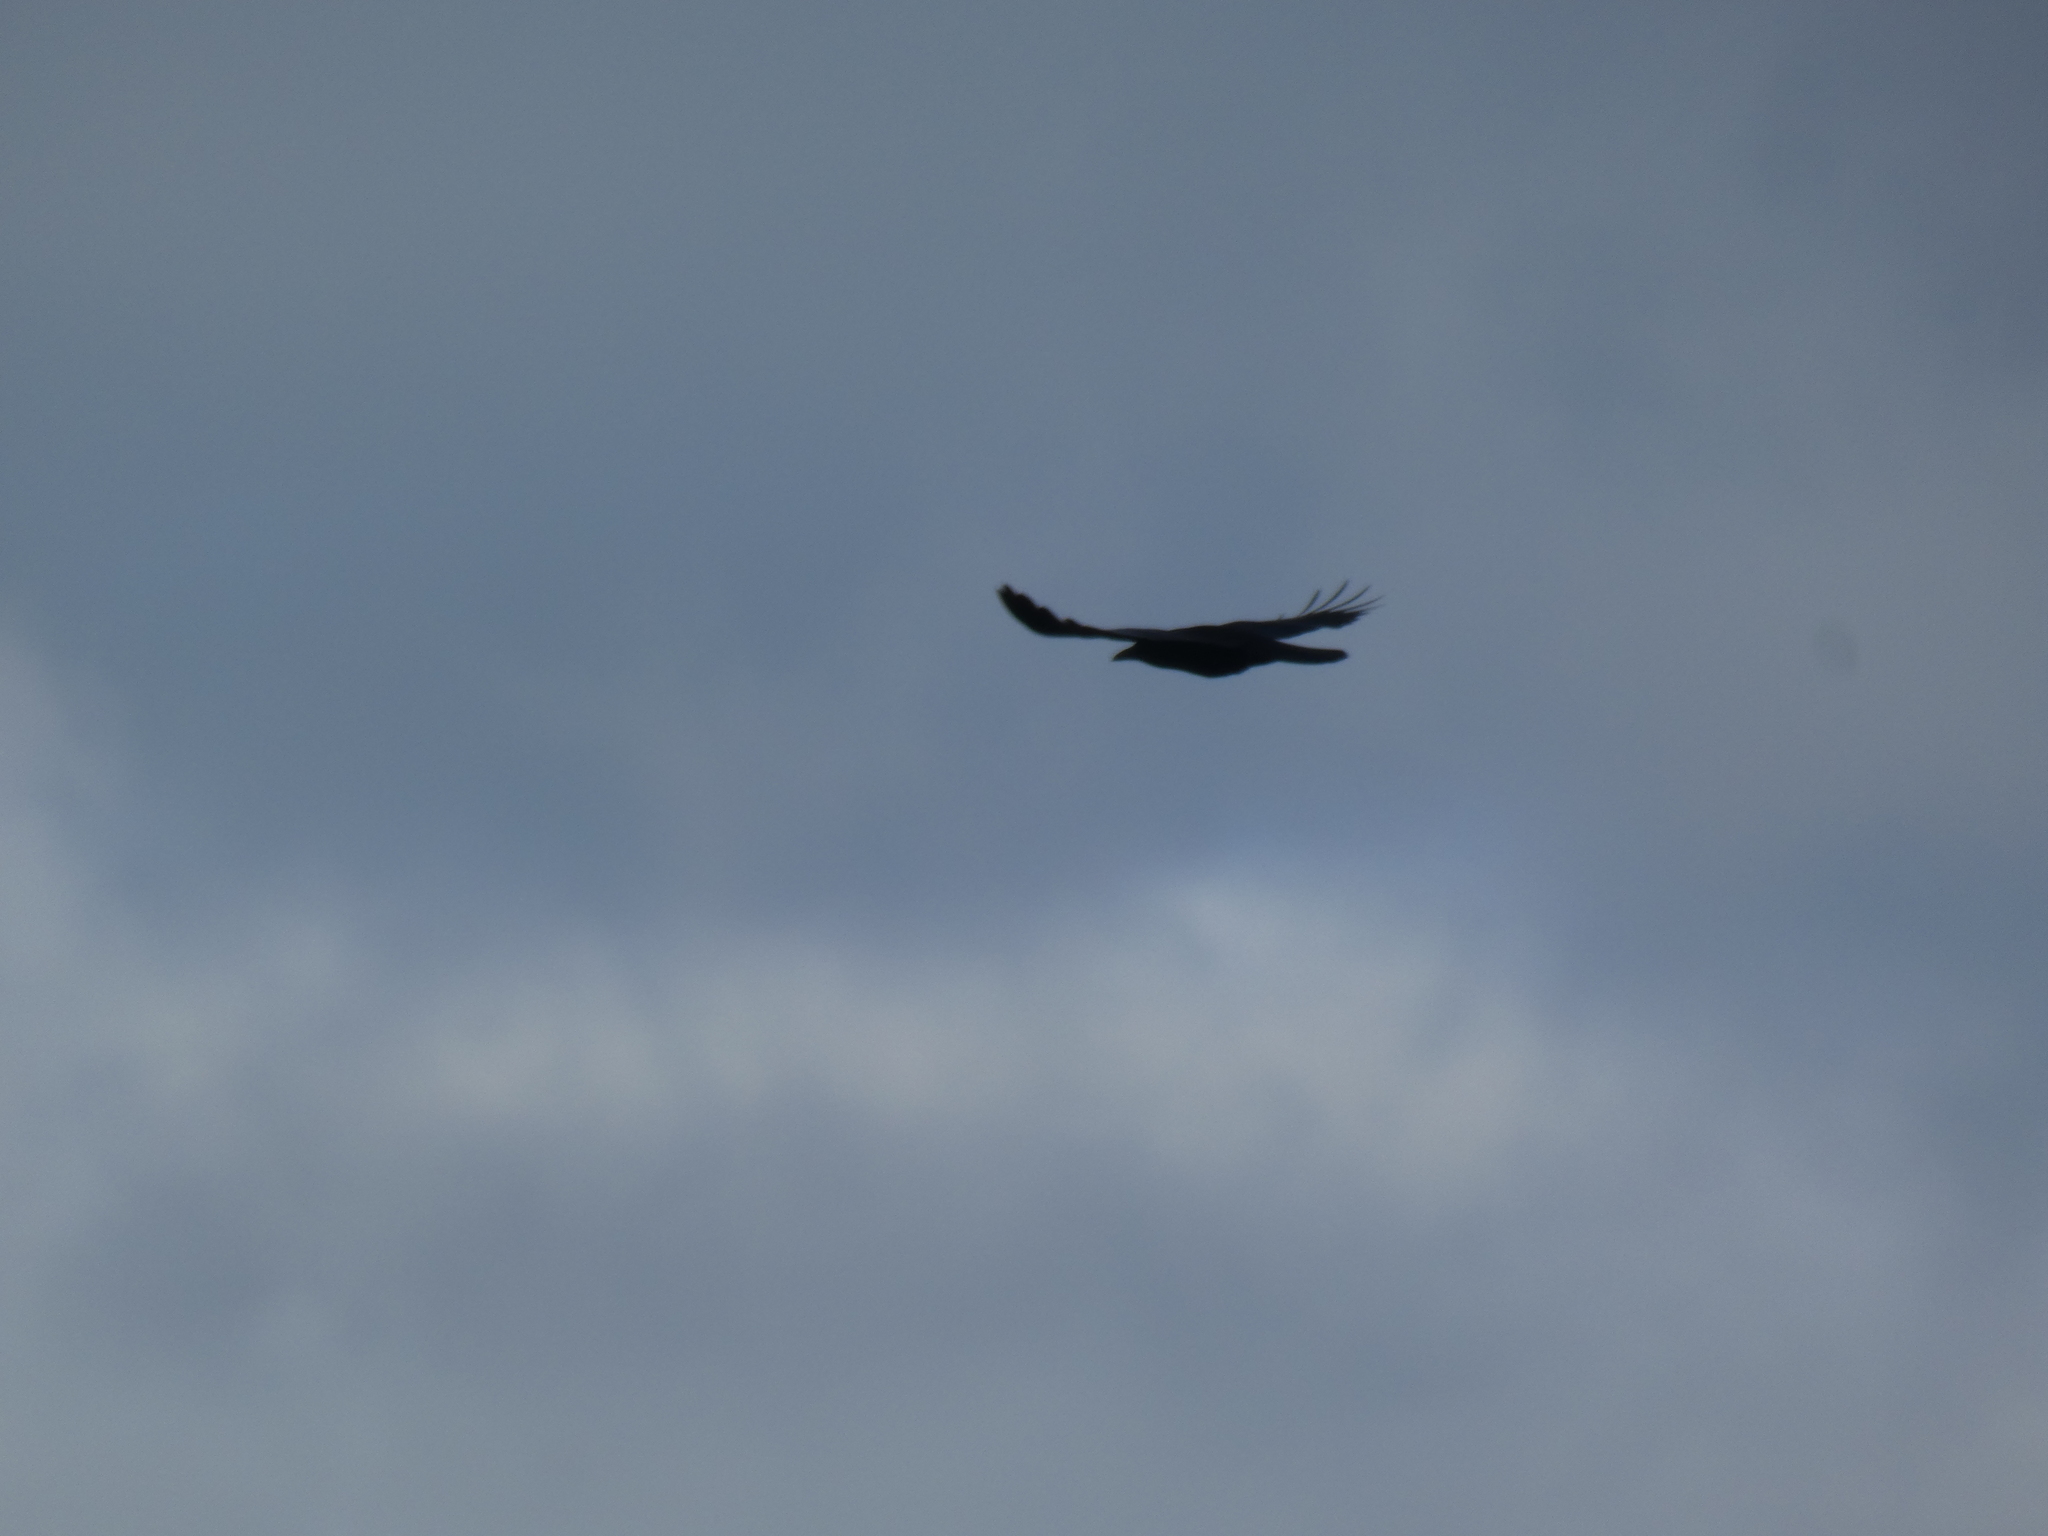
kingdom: Animalia
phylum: Chordata
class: Aves
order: Passeriformes
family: Corvidae
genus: Corvus
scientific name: Corvus brachyrhynchos
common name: American crow
